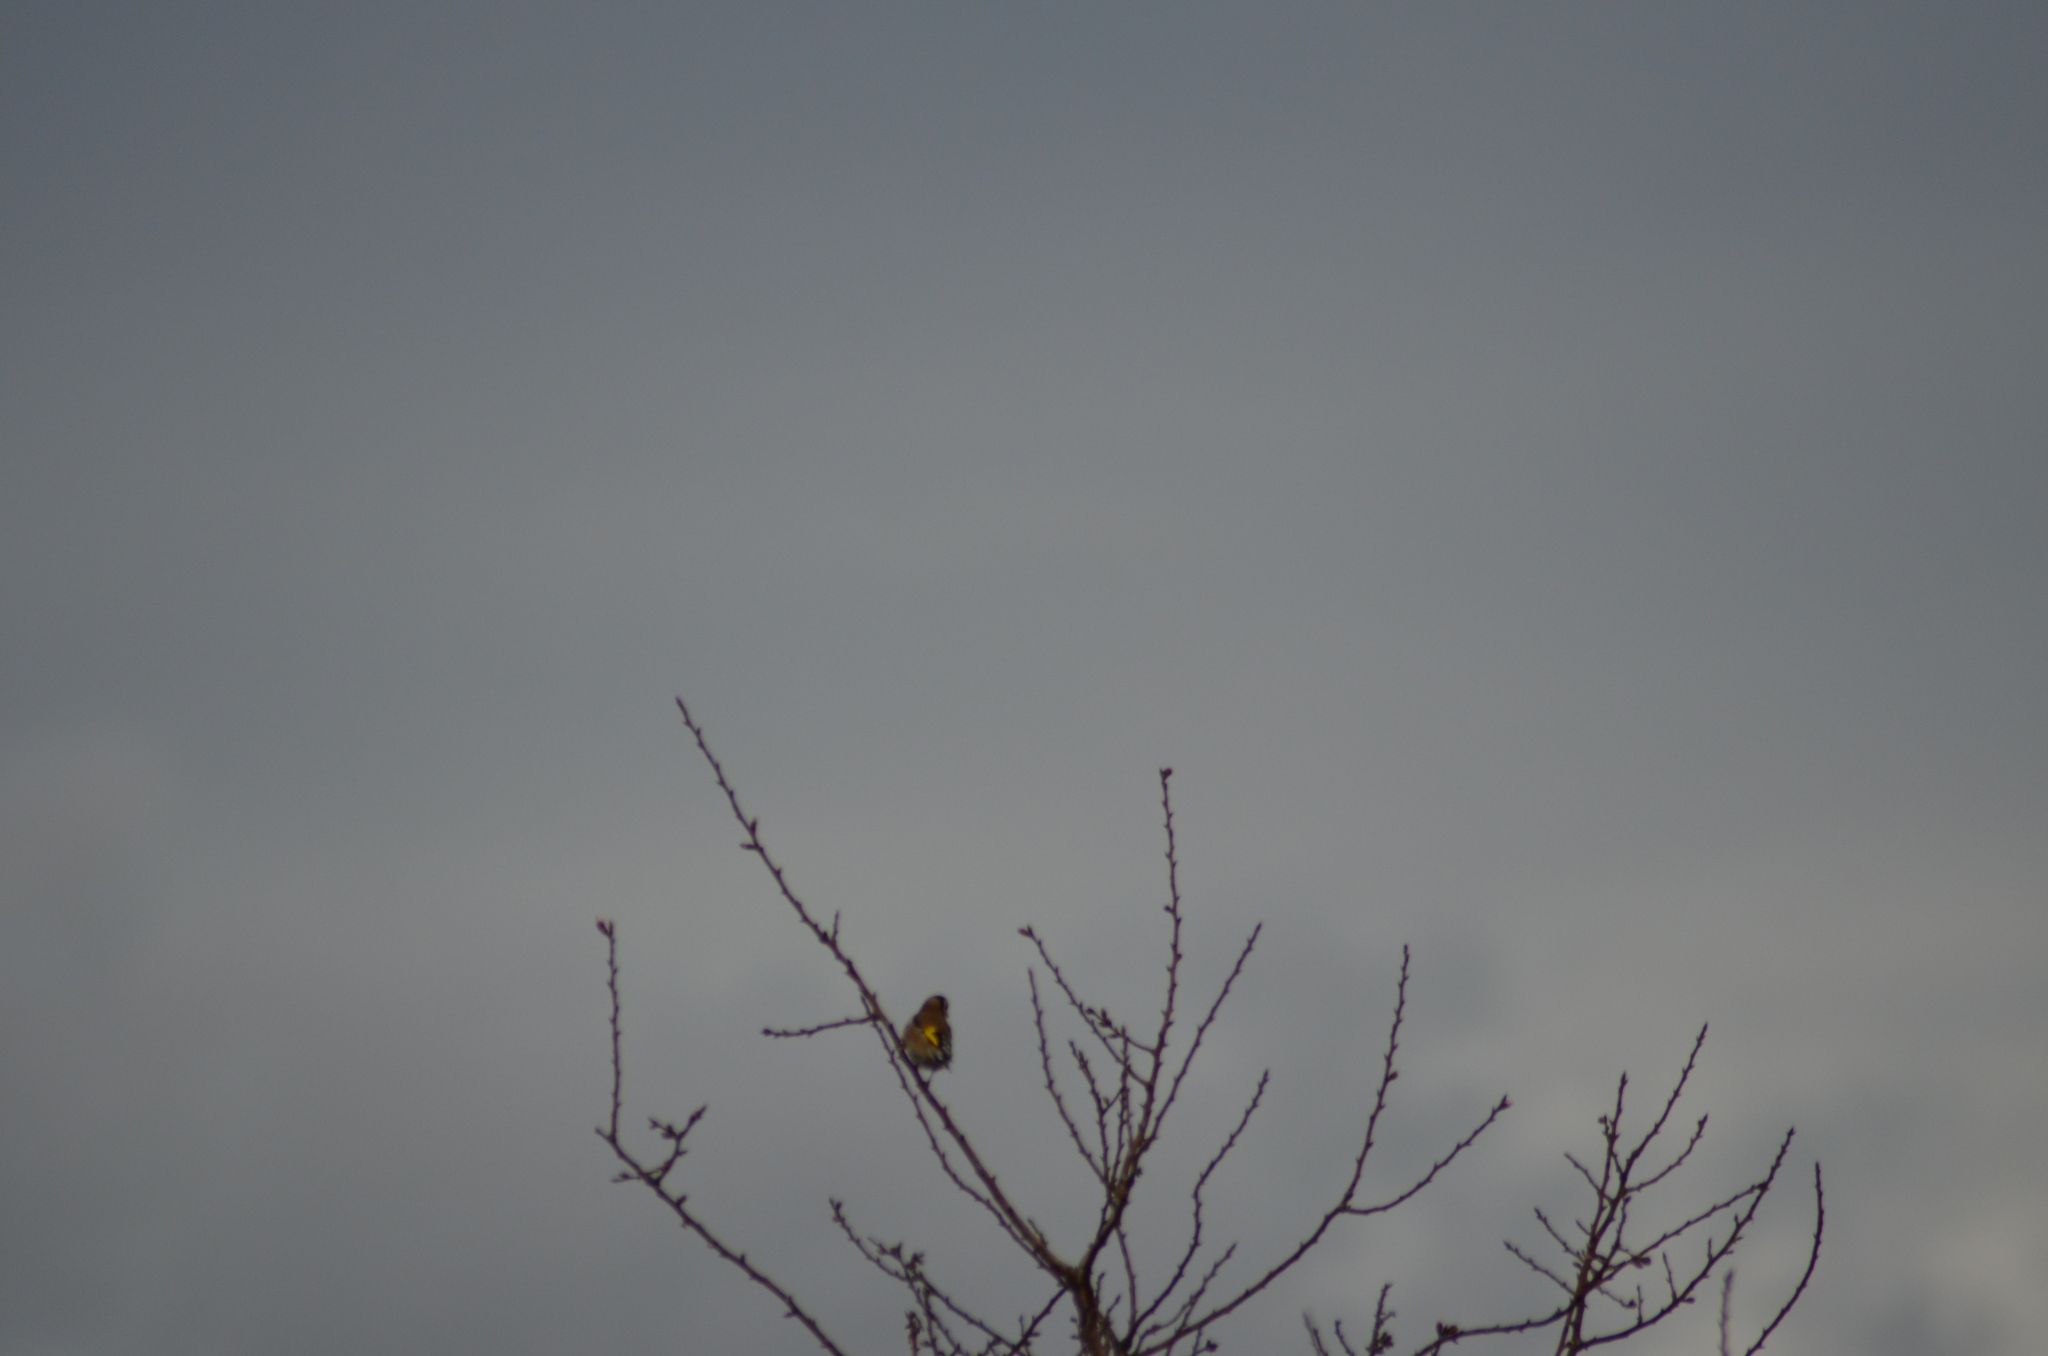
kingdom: Animalia
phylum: Chordata
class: Aves
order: Passeriformes
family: Fringillidae
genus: Carduelis
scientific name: Carduelis carduelis
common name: European goldfinch
